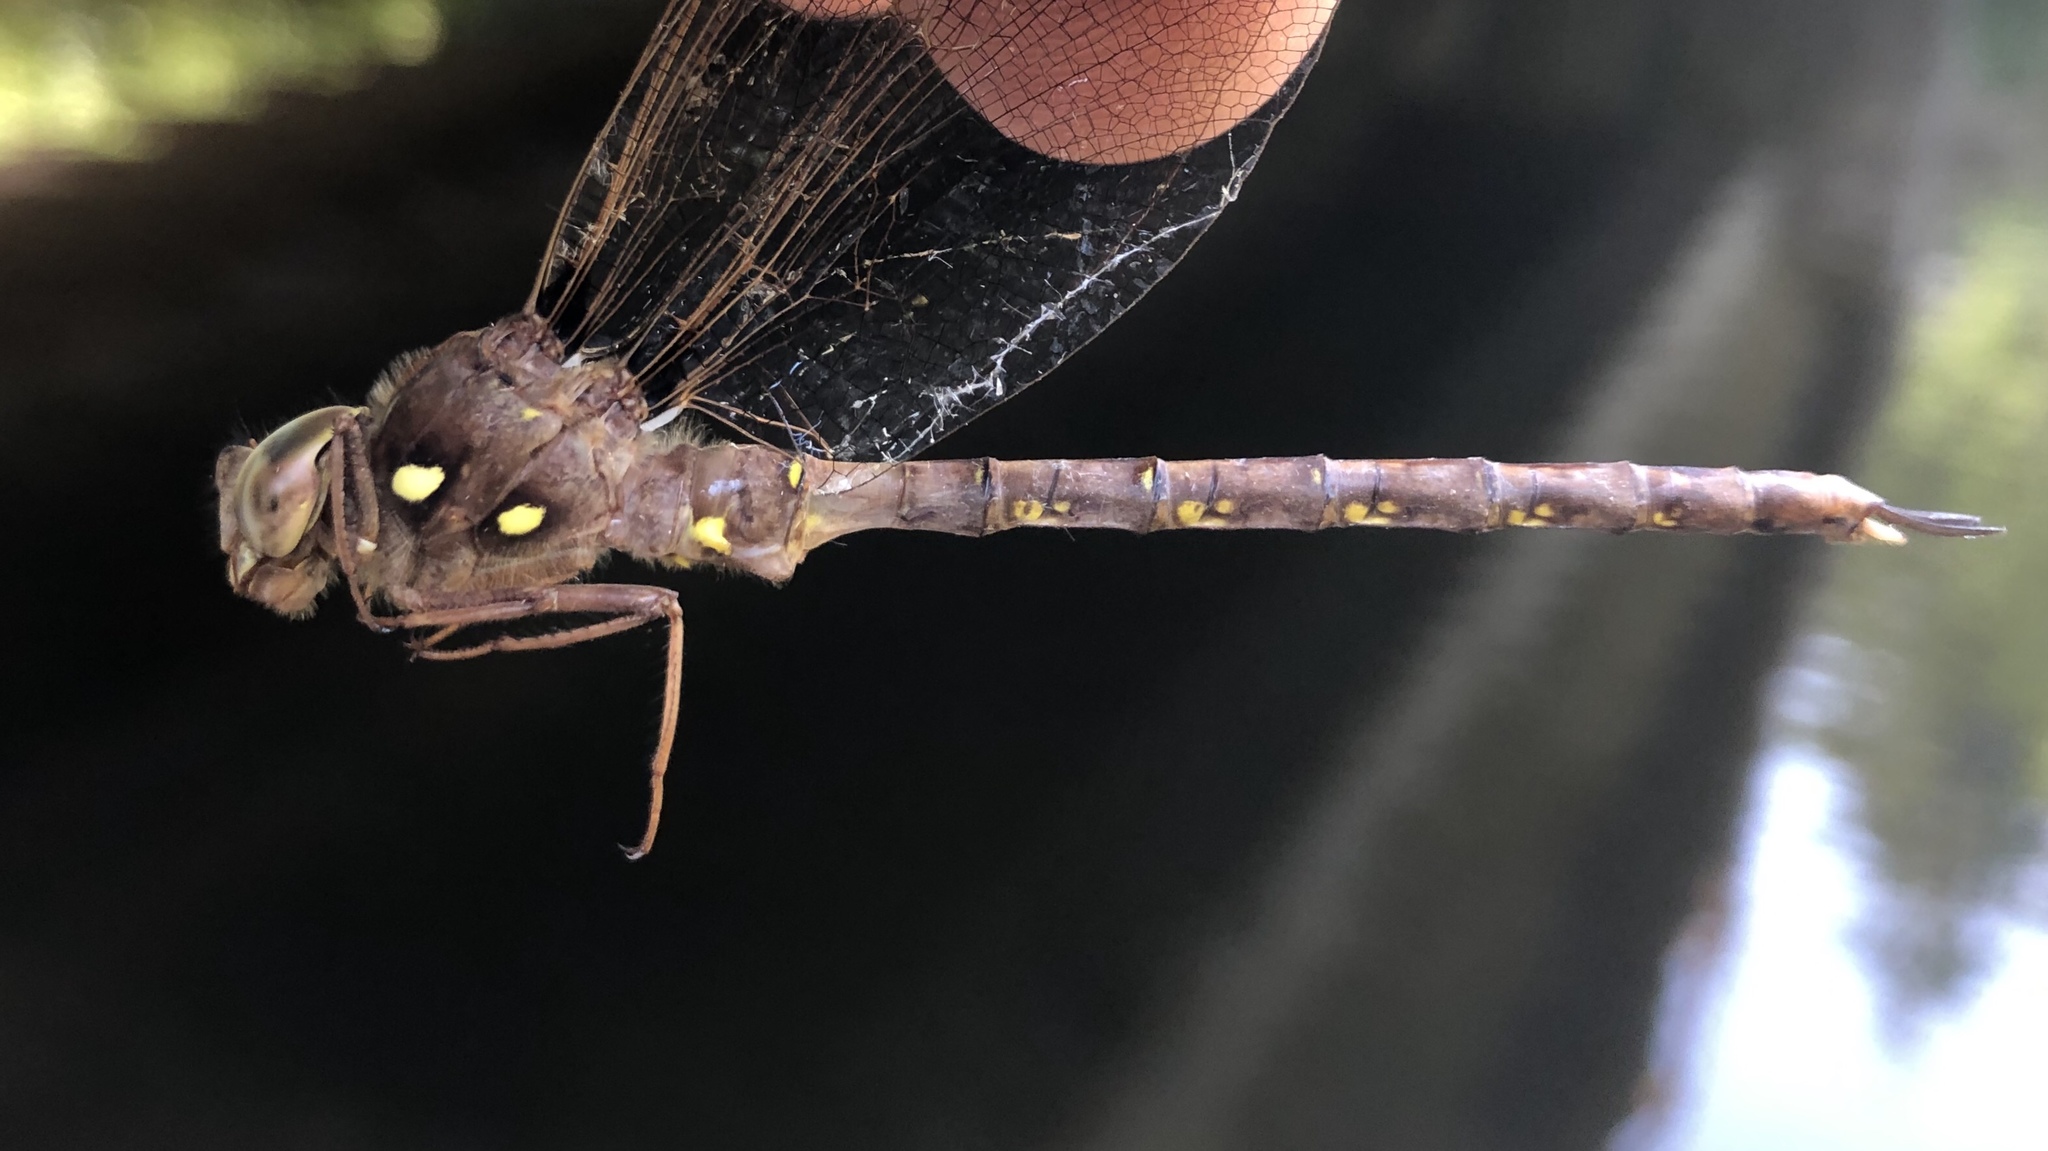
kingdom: Animalia
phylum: Arthropoda
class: Insecta
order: Odonata
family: Aeshnidae
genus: Boyeria
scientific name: Boyeria vinosa
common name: Fawn darner
